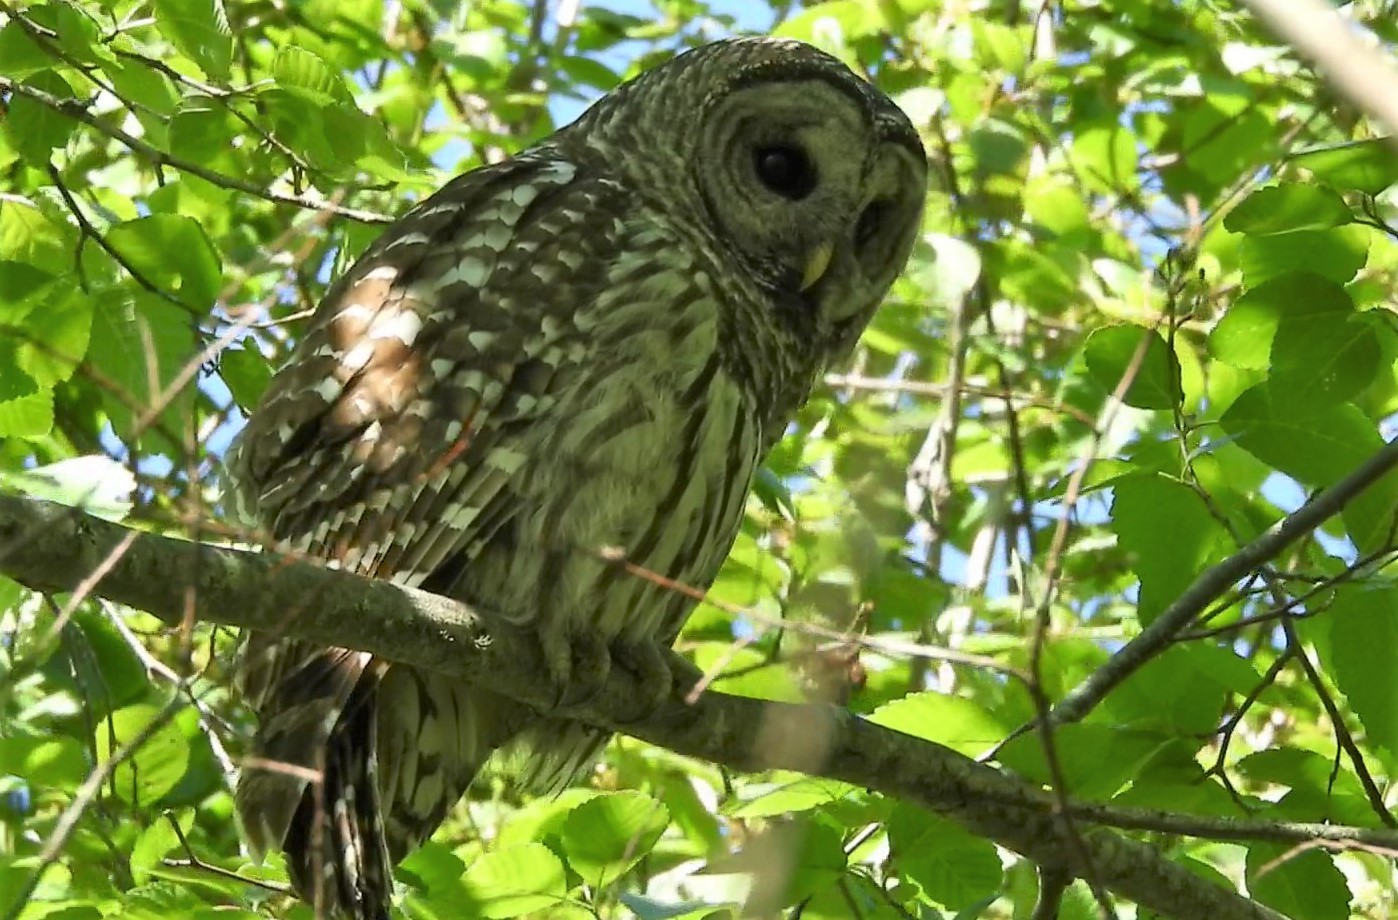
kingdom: Animalia
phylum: Chordata
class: Aves
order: Strigiformes
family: Strigidae
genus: Strix
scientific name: Strix varia
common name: Barred owl
